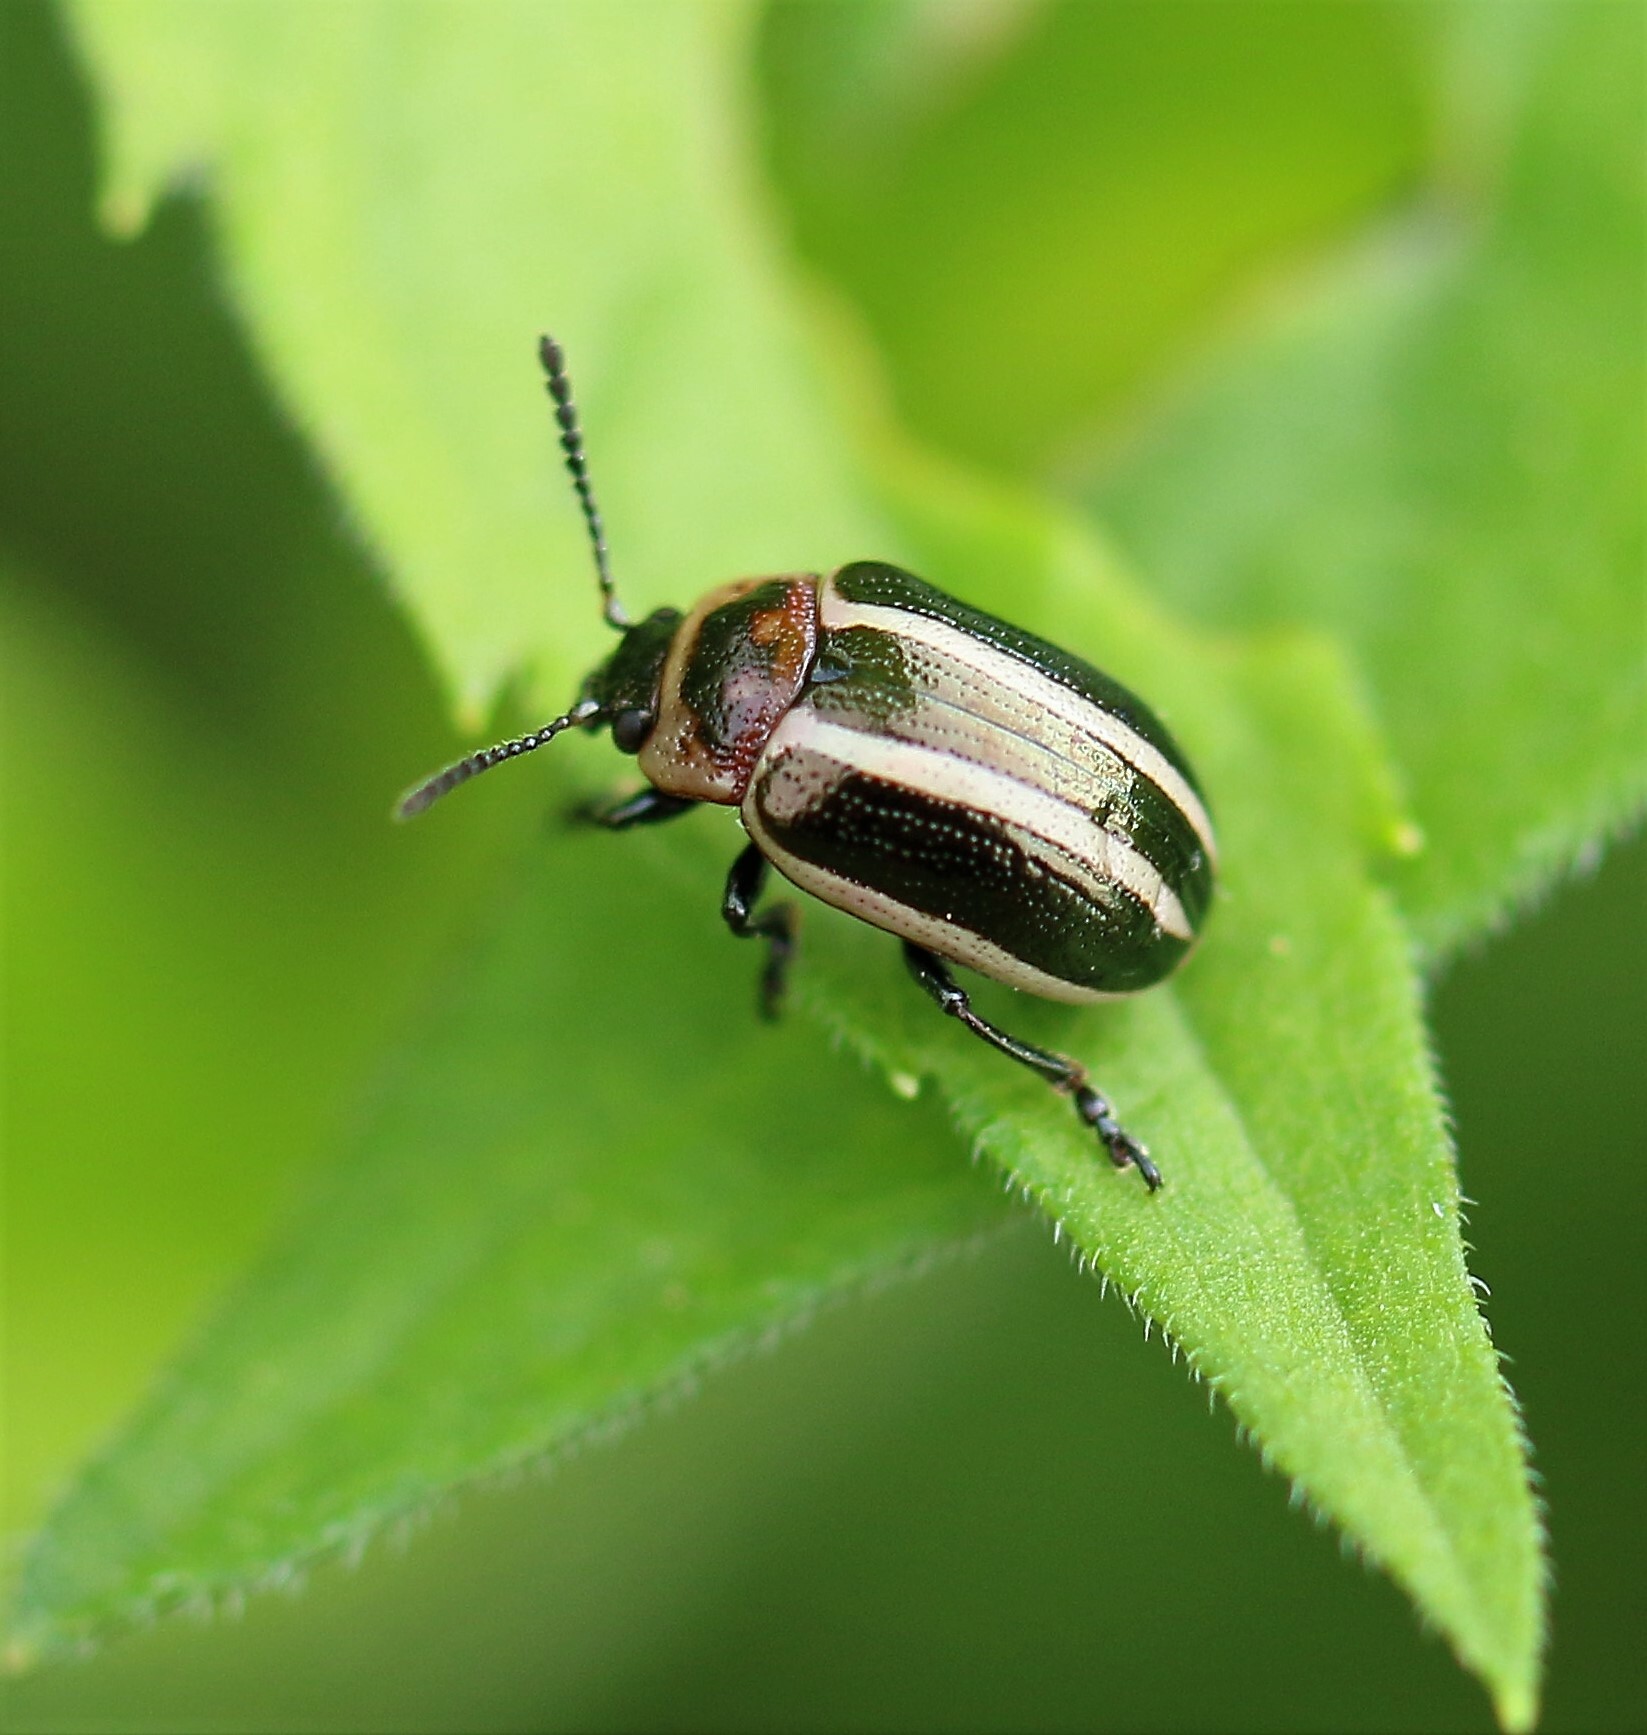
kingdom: Animalia
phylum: Arthropoda
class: Insecta
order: Coleoptera
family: Chrysomelidae
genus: Calligrapha
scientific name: Calligrapha californica
